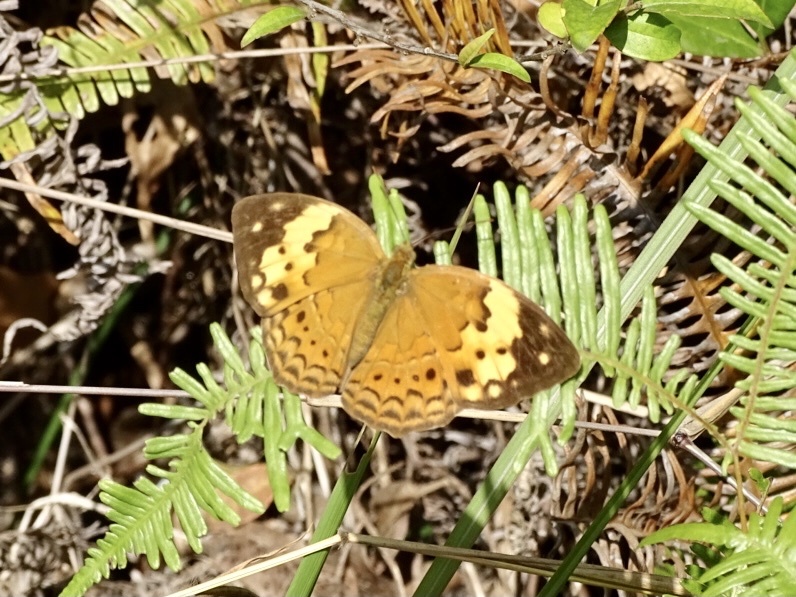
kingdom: Animalia
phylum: Arthropoda
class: Insecta
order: Lepidoptera
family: Nymphalidae
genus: Cupha
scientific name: Cupha erymanthis
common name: Rustic
